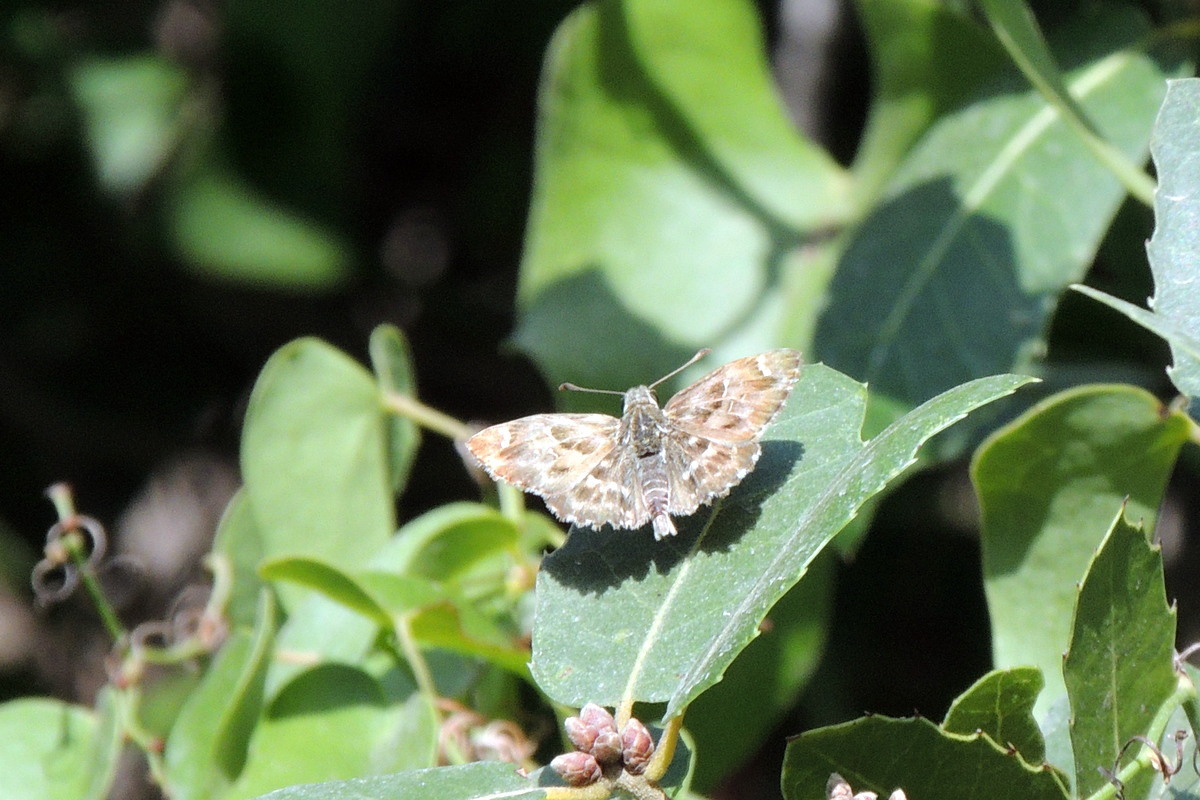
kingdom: Animalia
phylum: Arthropoda
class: Insecta
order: Lepidoptera
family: Hesperiidae
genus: Carcharodus
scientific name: Carcharodus alceae
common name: Mallow skipper
